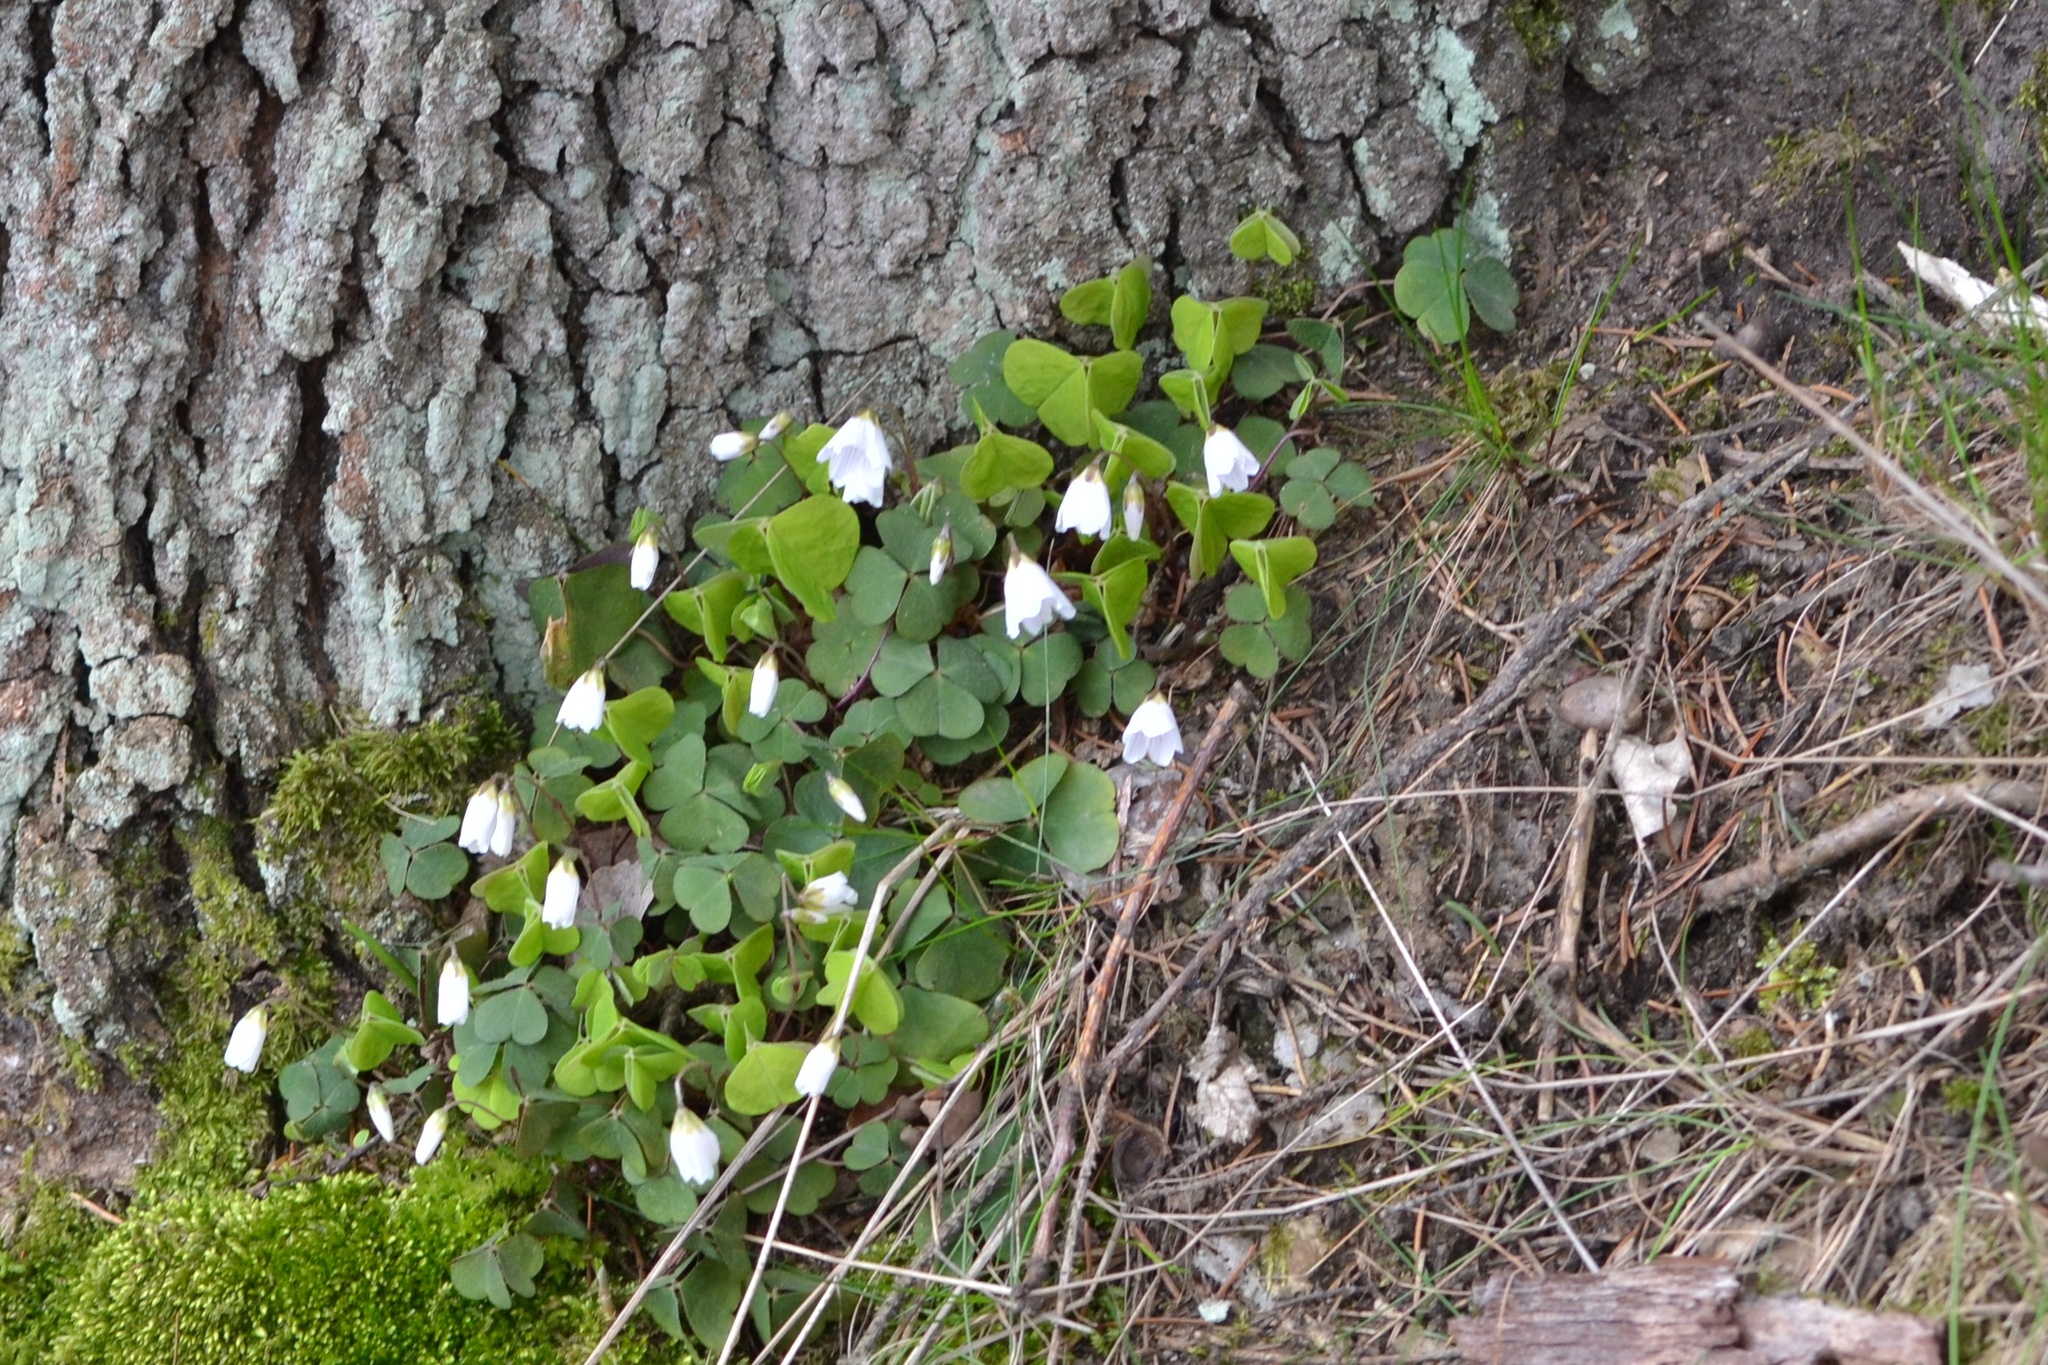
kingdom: Plantae
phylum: Tracheophyta
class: Magnoliopsida
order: Oxalidales
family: Oxalidaceae
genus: Oxalis
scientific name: Oxalis acetosella
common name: Wood-sorrel
